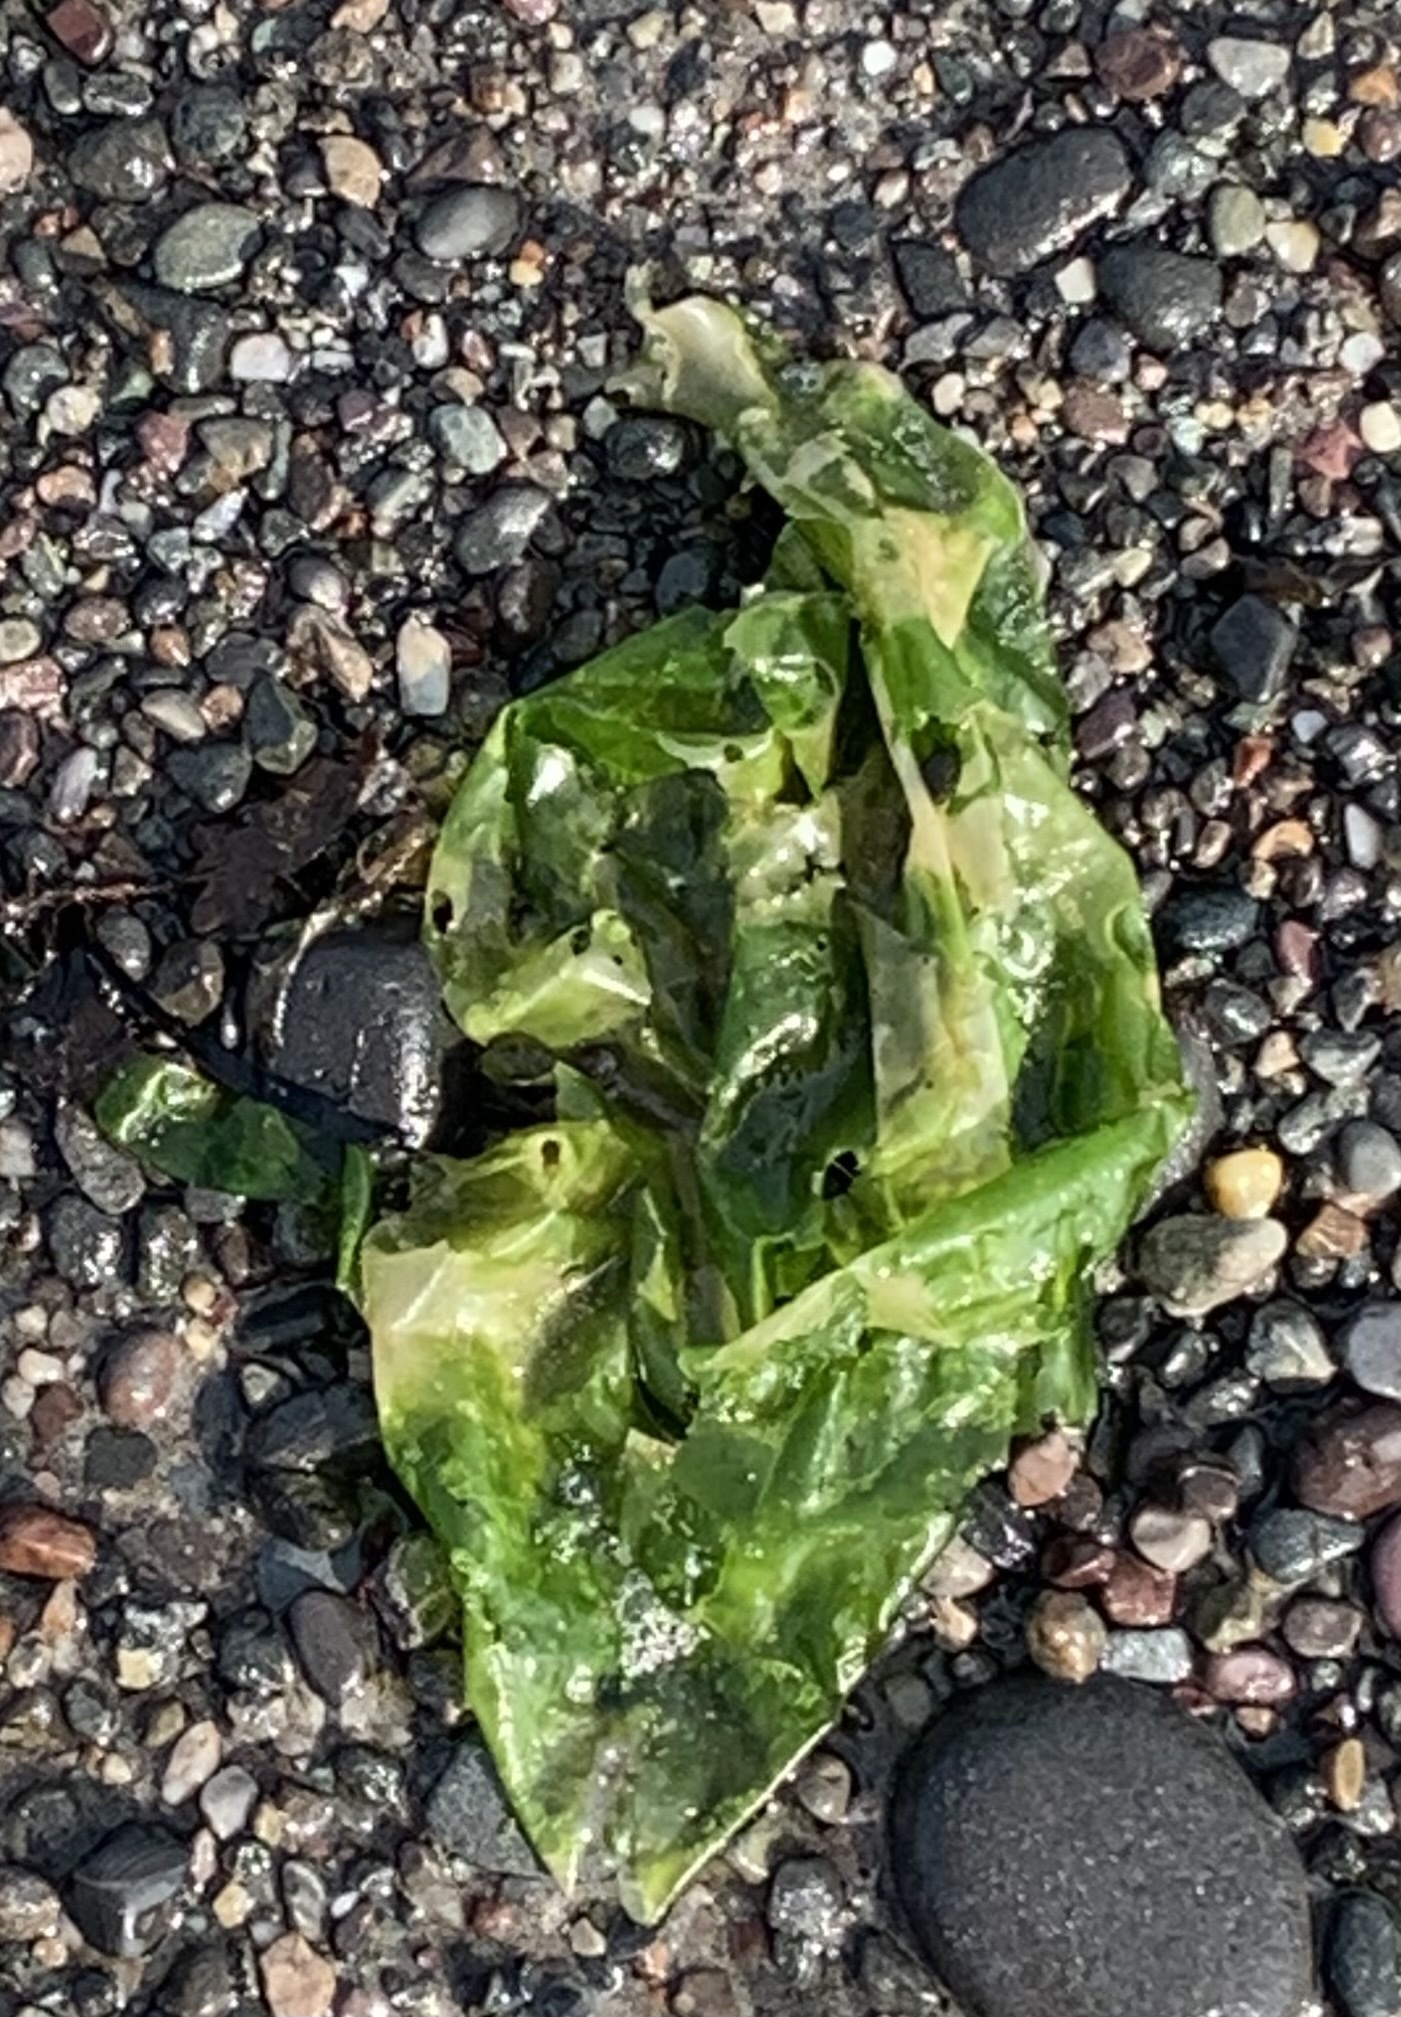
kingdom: Plantae
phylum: Chlorophyta
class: Ulvophyceae
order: Ulvales
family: Ulvaceae
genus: Ulva
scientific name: Ulva lactuca
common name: Sea lettuce
